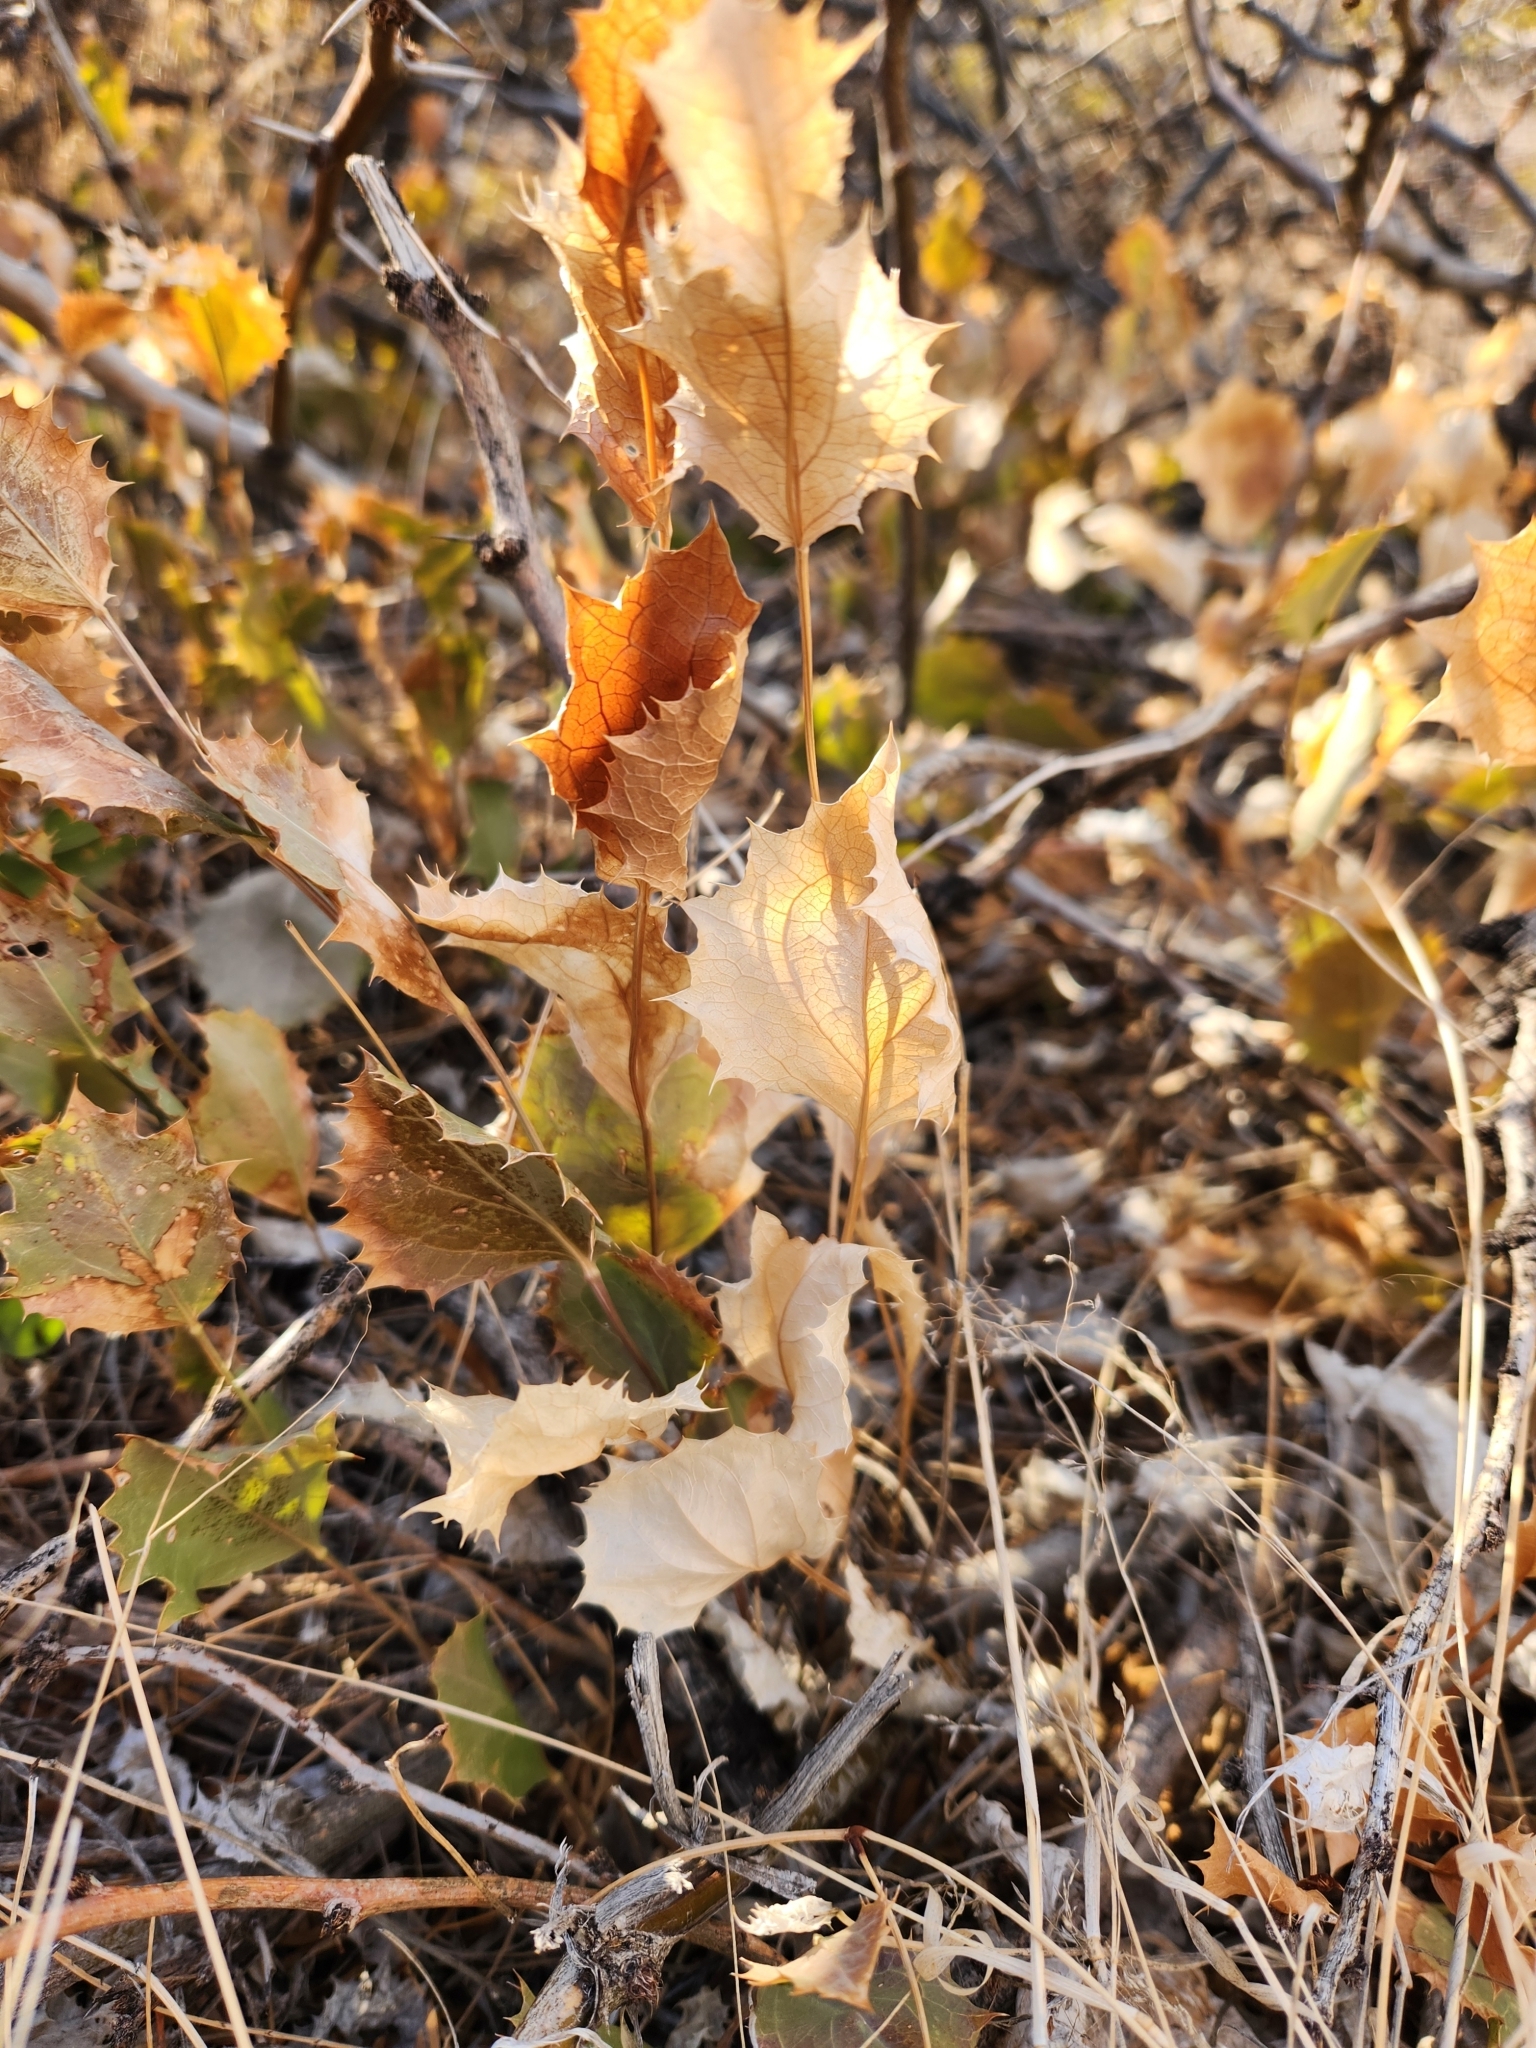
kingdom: Plantae
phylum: Tracheophyta
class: Magnoliopsida
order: Asterales
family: Asteraceae
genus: Acourtia
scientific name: Acourtia nana
